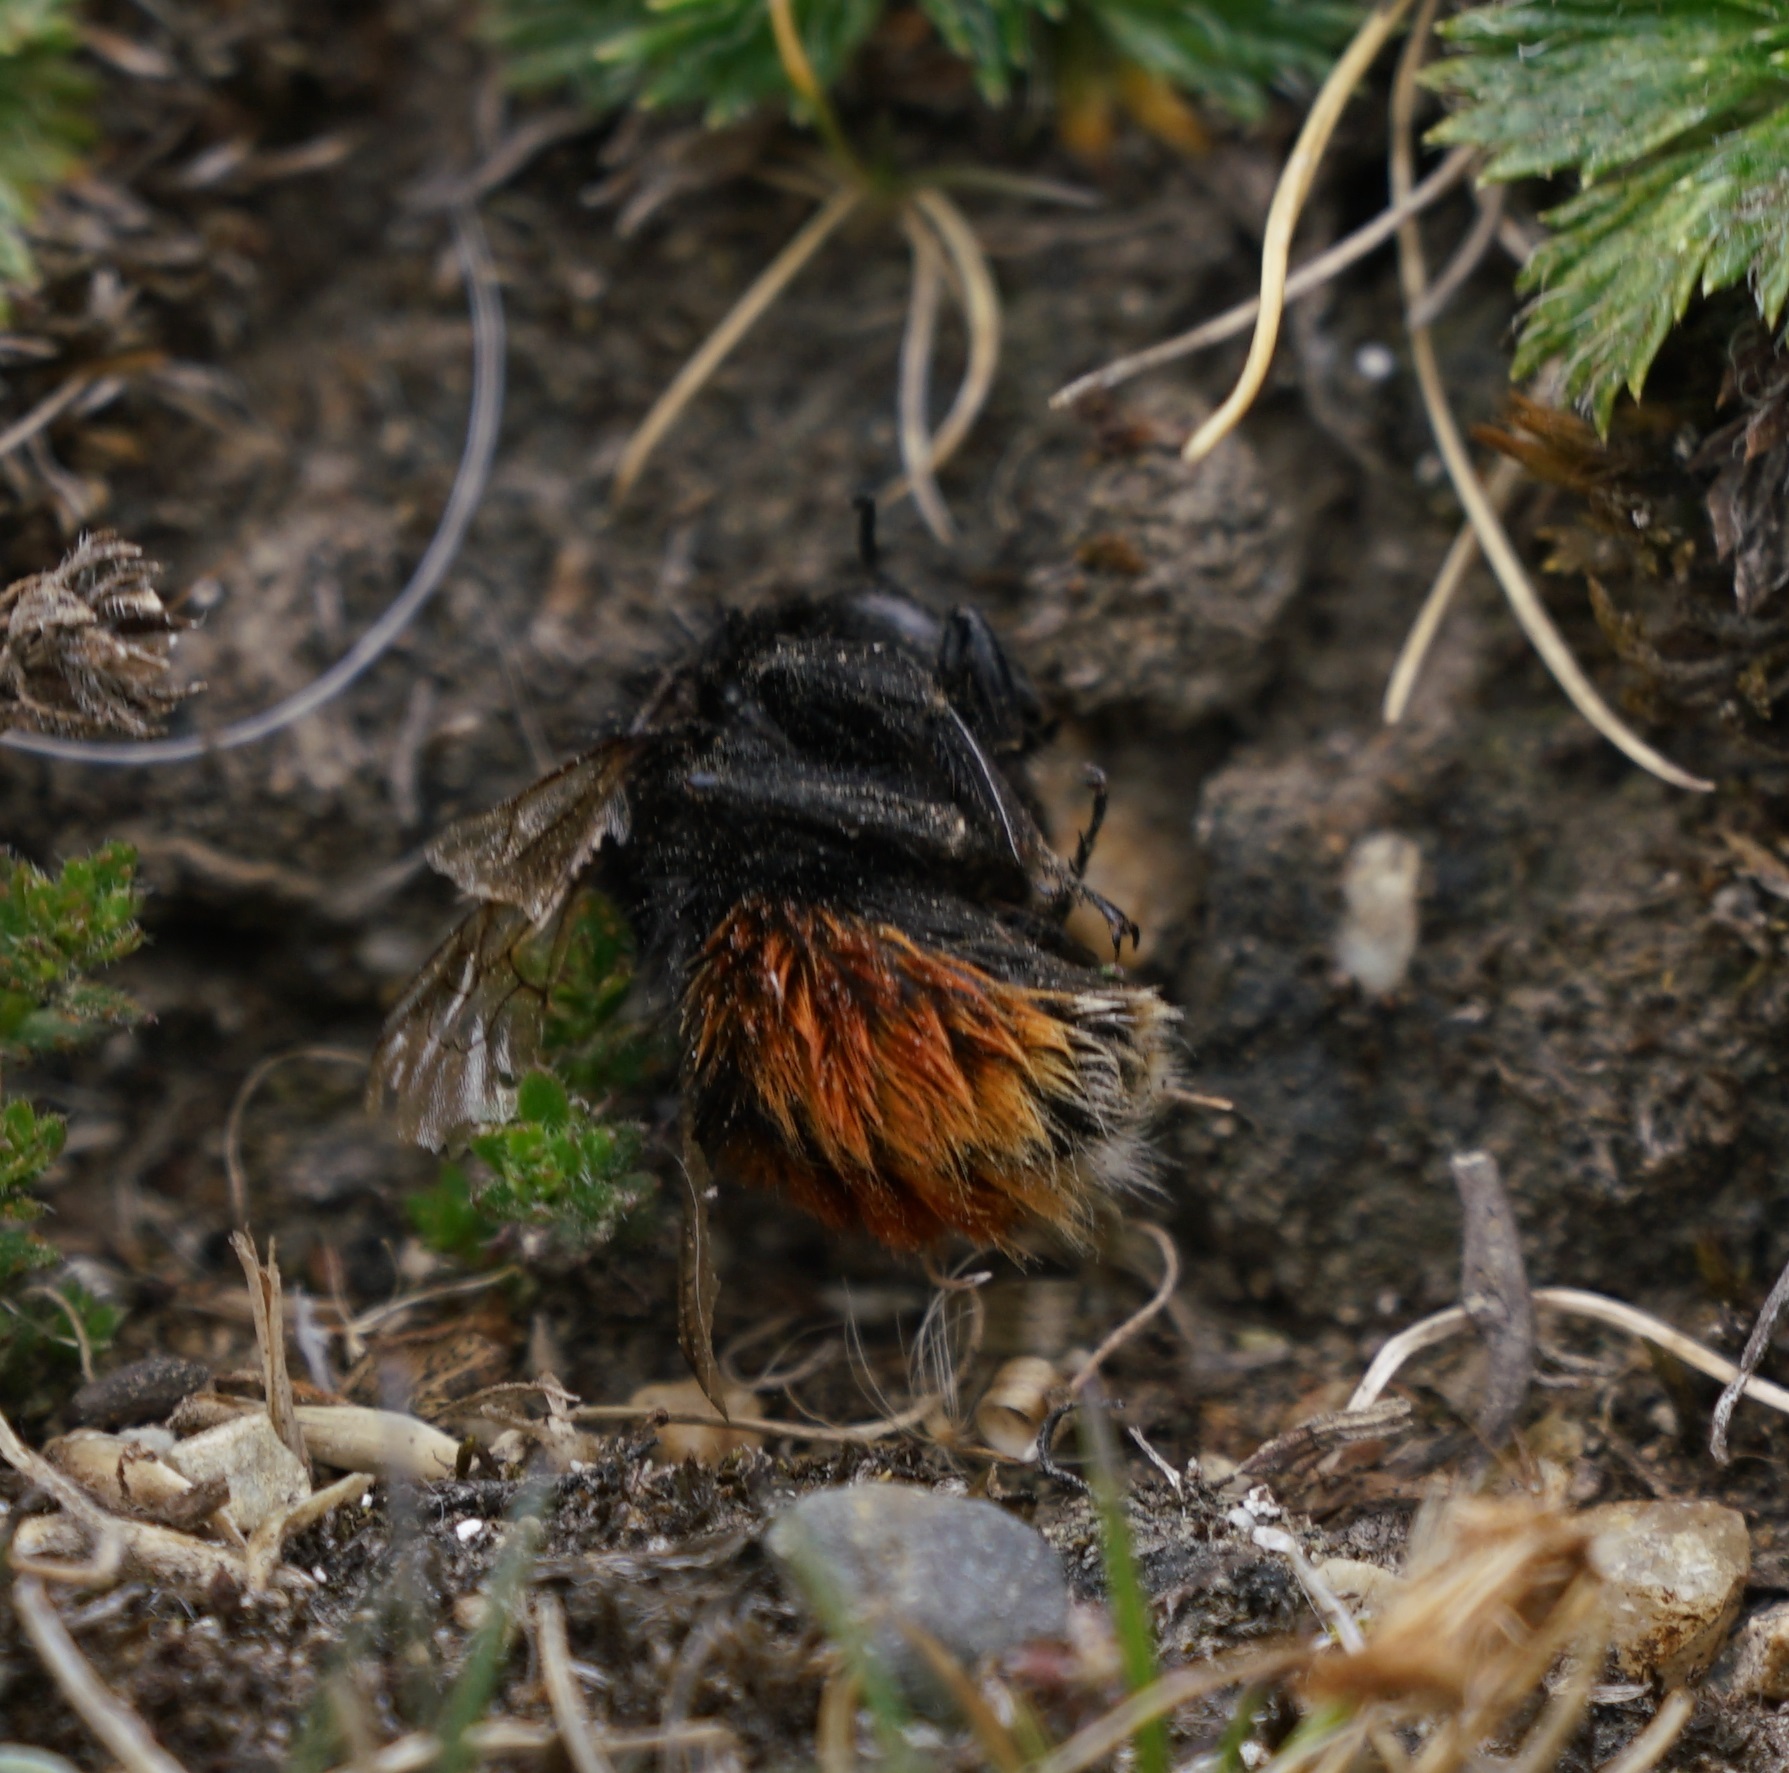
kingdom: Animalia
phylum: Arthropoda
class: Insecta
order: Hymenoptera
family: Apidae
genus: Bombus
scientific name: Bombus coccineus
